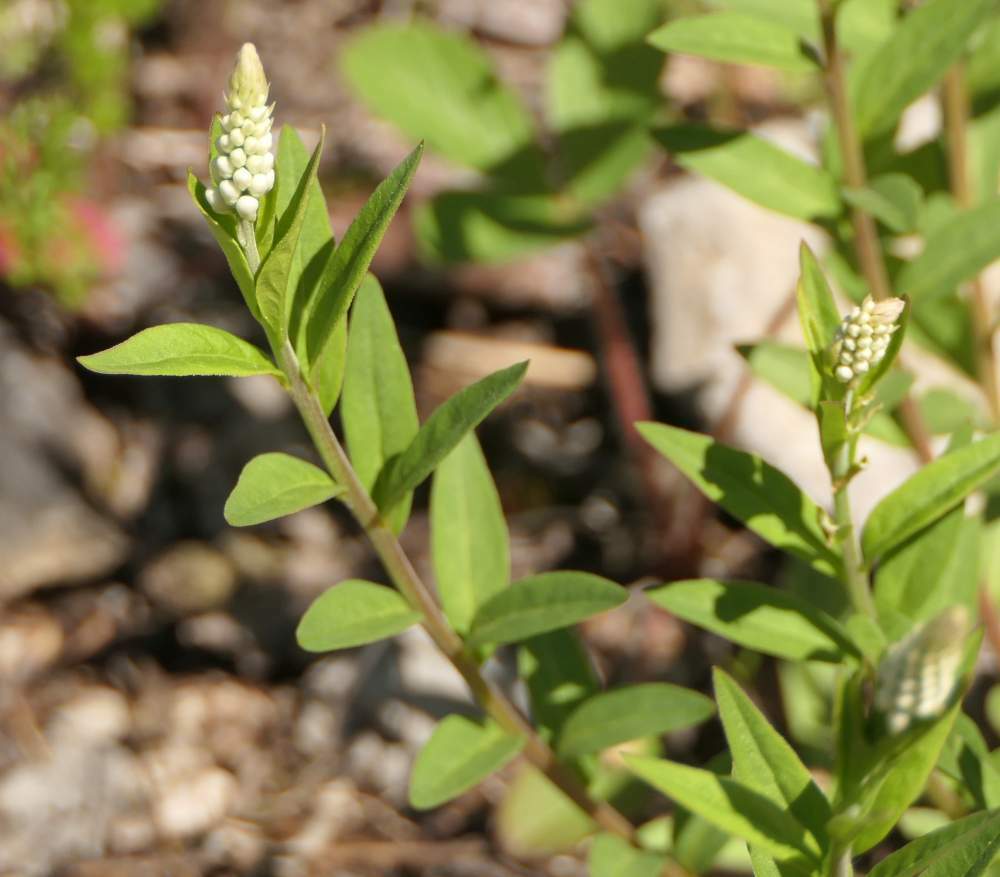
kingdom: Plantae
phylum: Tracheophyta
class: Magnoliopsida
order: Fabales
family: Polygalaceae
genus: Polygala
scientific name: Polygala senega
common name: Seneca snakeroot
